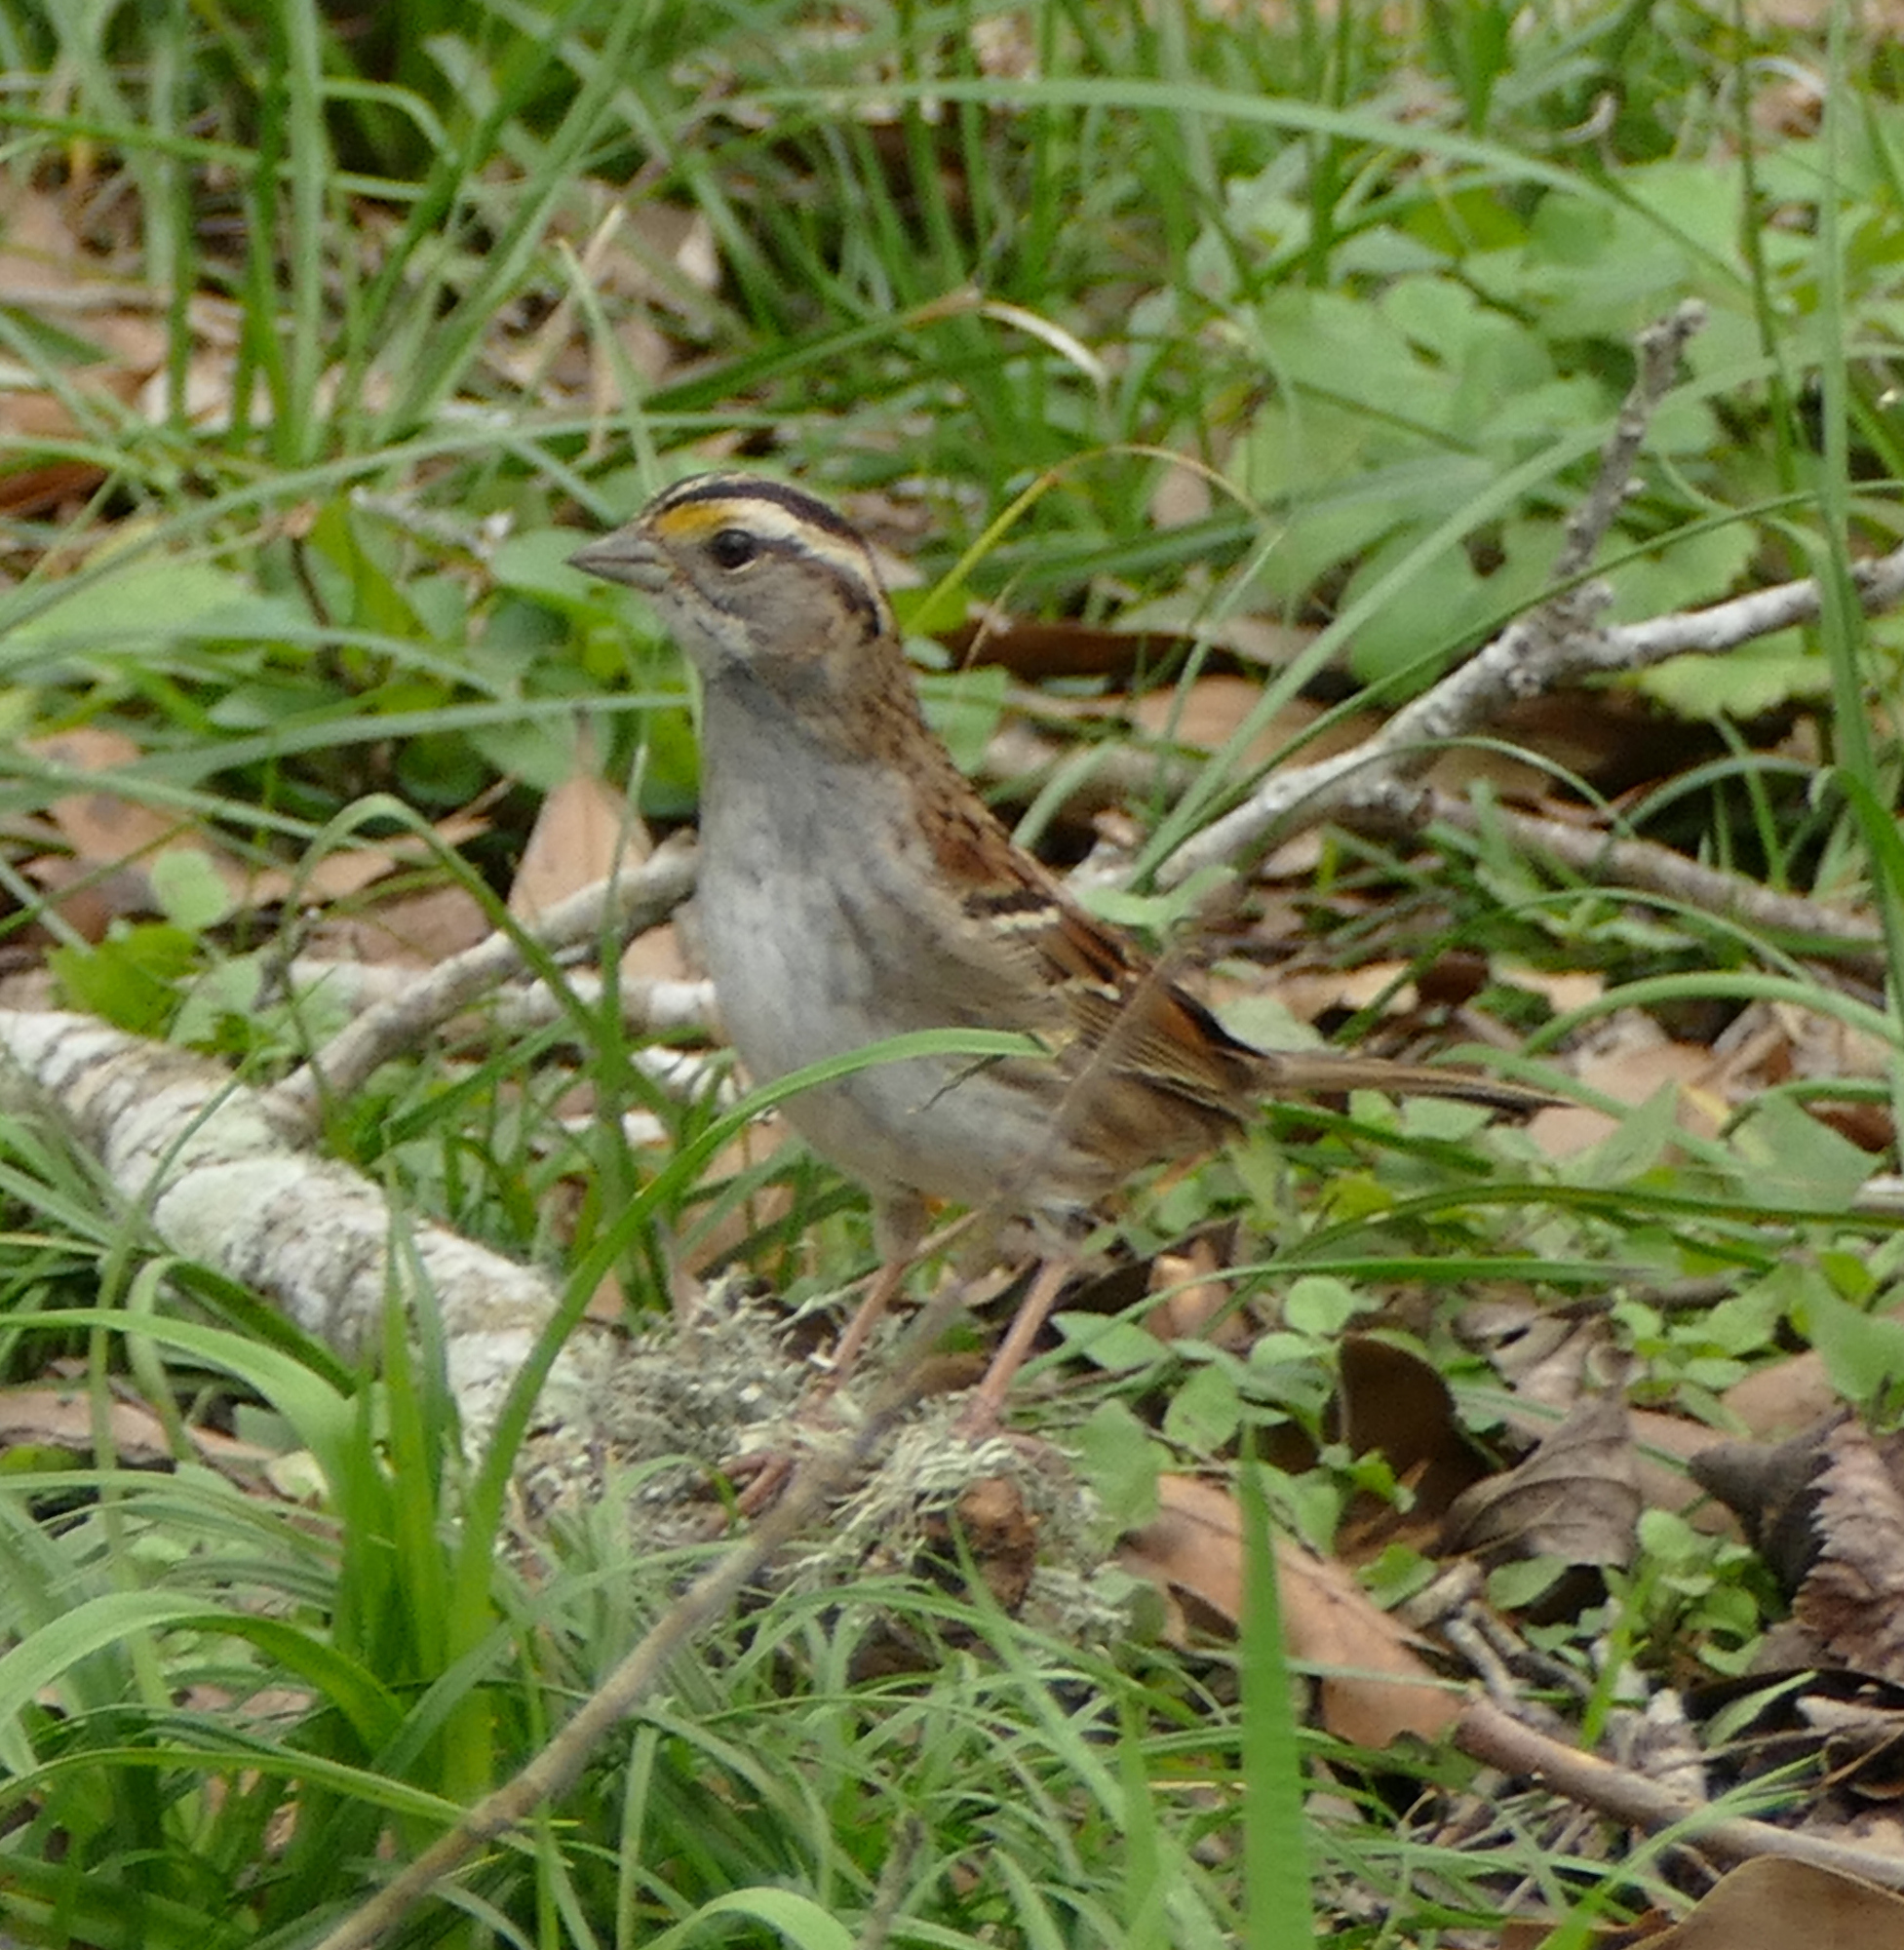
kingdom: Animalia
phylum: Chordata
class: Aves
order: Passeriformes
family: Passerellidae
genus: Zonotrichia
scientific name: Zonotrichia albicollis
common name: White-throated sparrow
